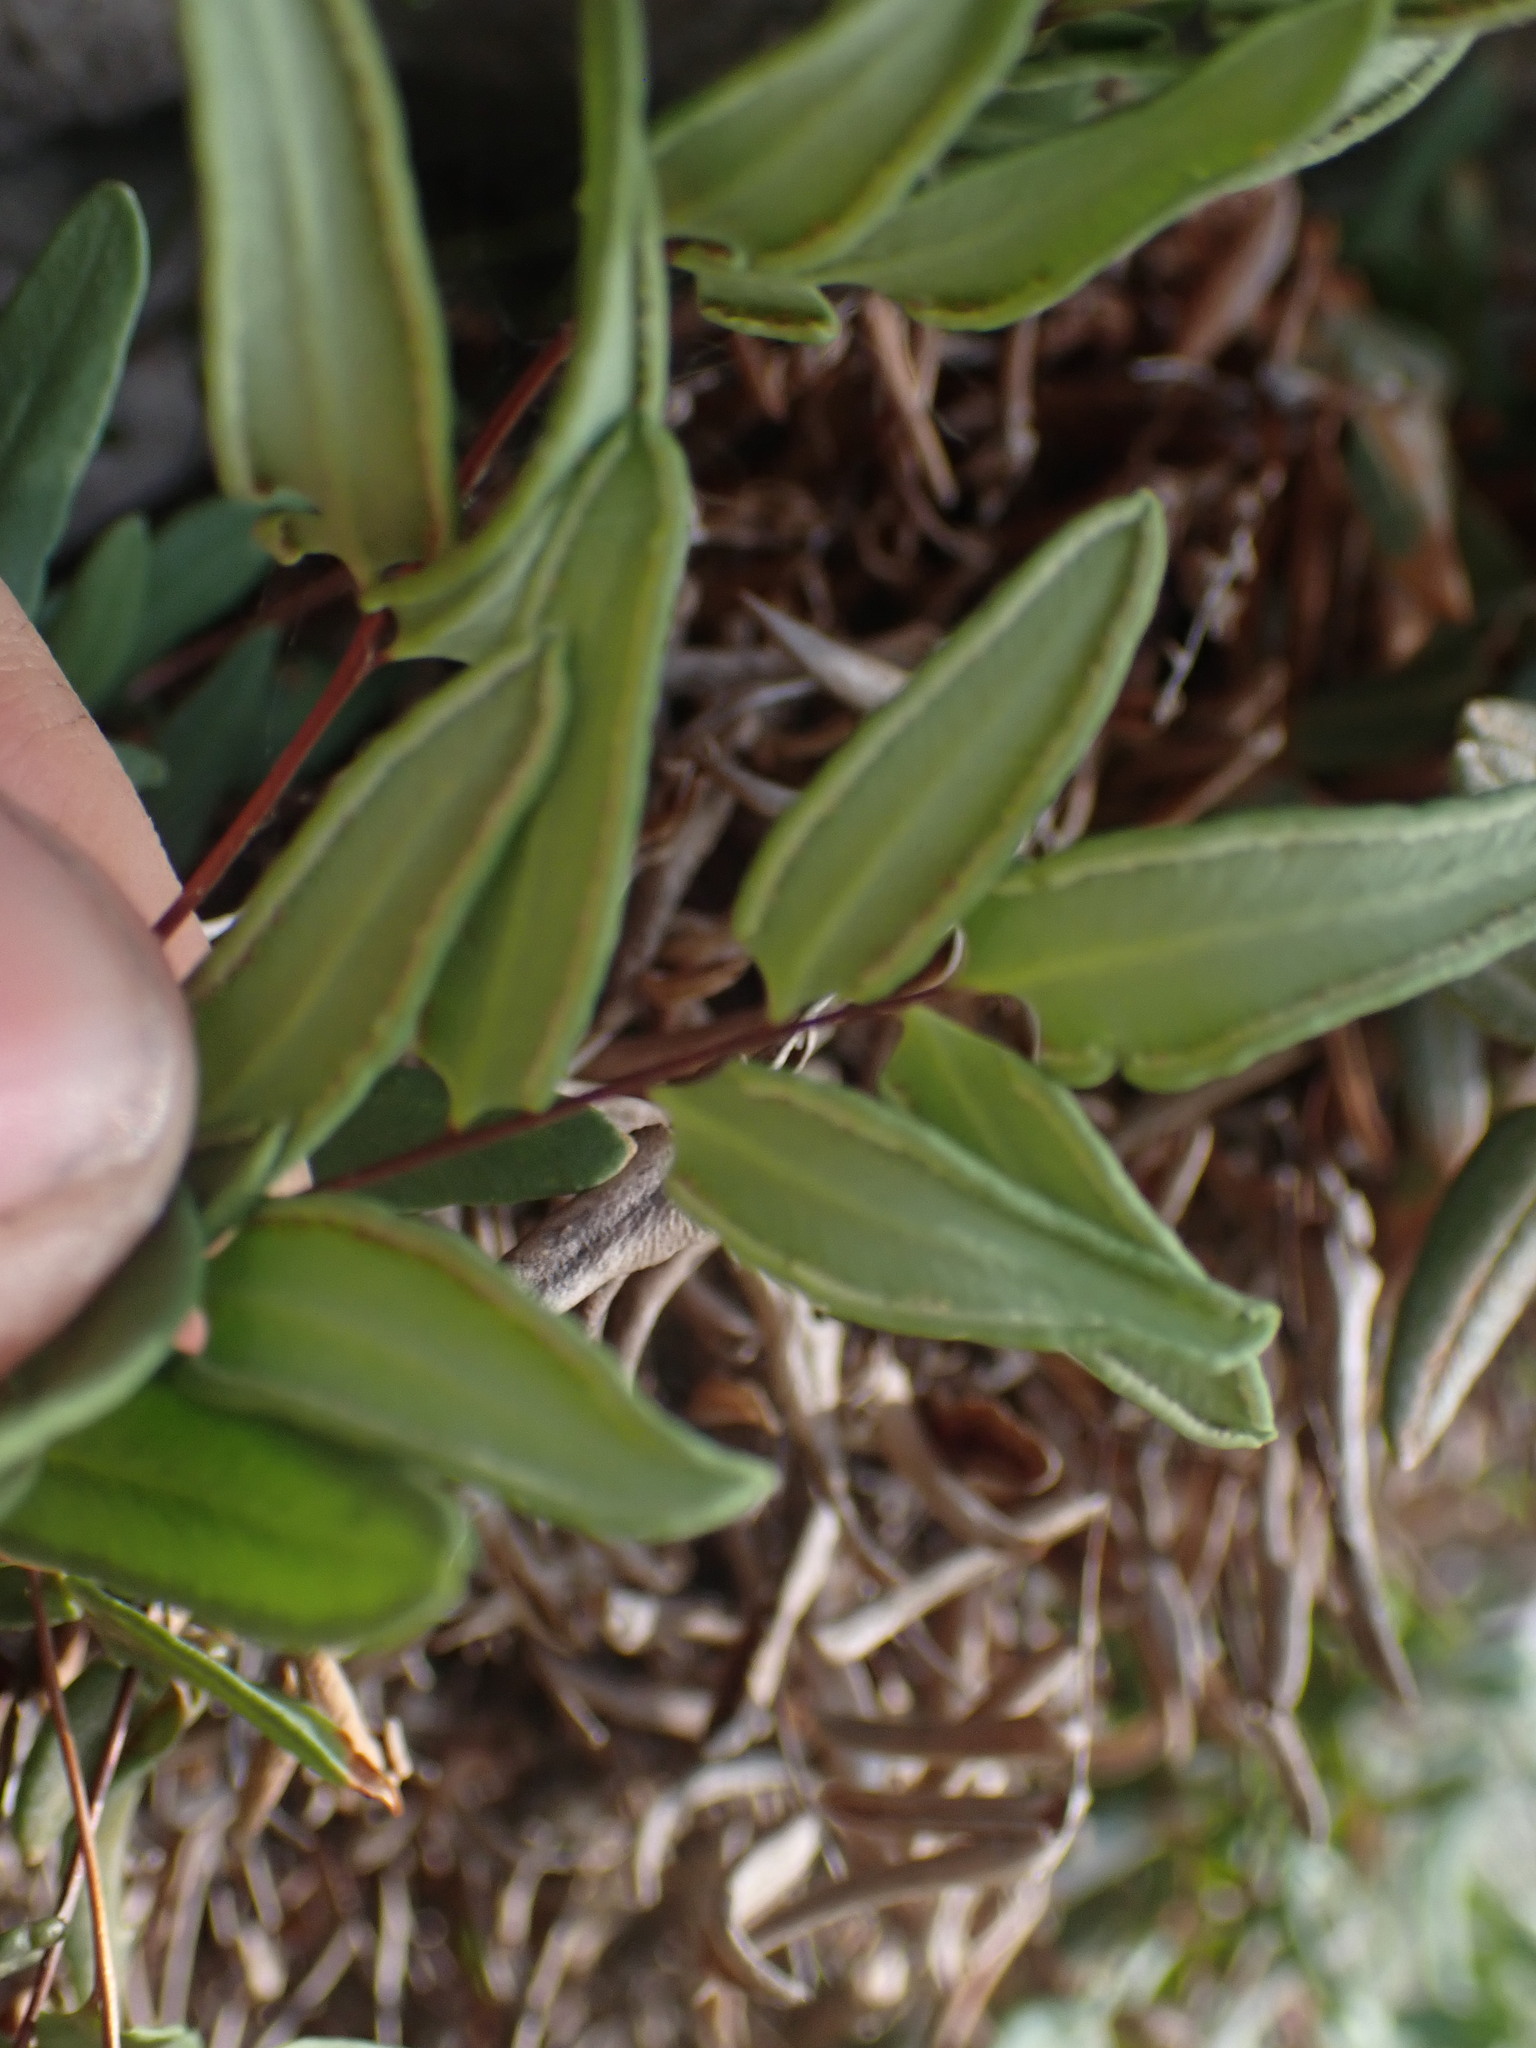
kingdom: Plantae
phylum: Tracheophyta
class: Polypodiopsida
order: Polypodiales
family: Pteridaceae
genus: Pellaea
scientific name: Pellaea glabella
